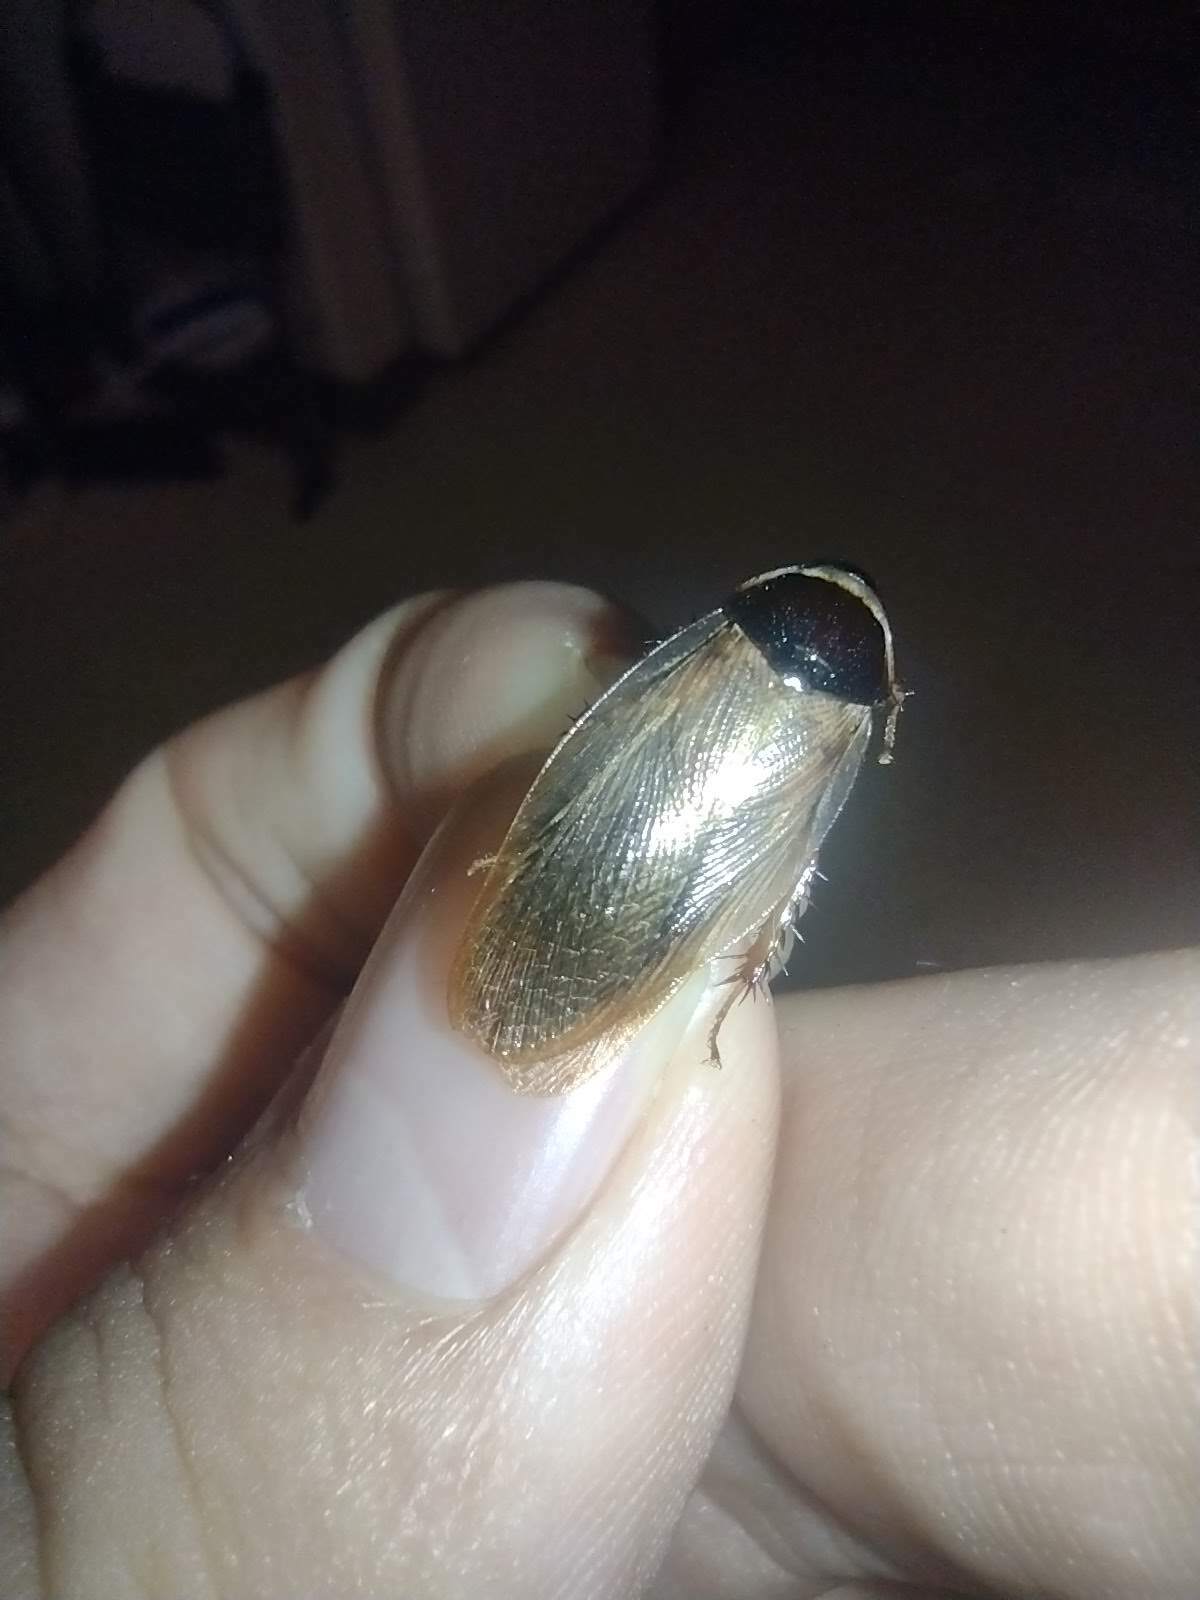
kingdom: Animalia
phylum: Arthropoda
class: Insecta
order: Blattodea
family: Blaberidae
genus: Pycnoscelus
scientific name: Pycnoscelus indicus
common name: Burrowing cockroach
